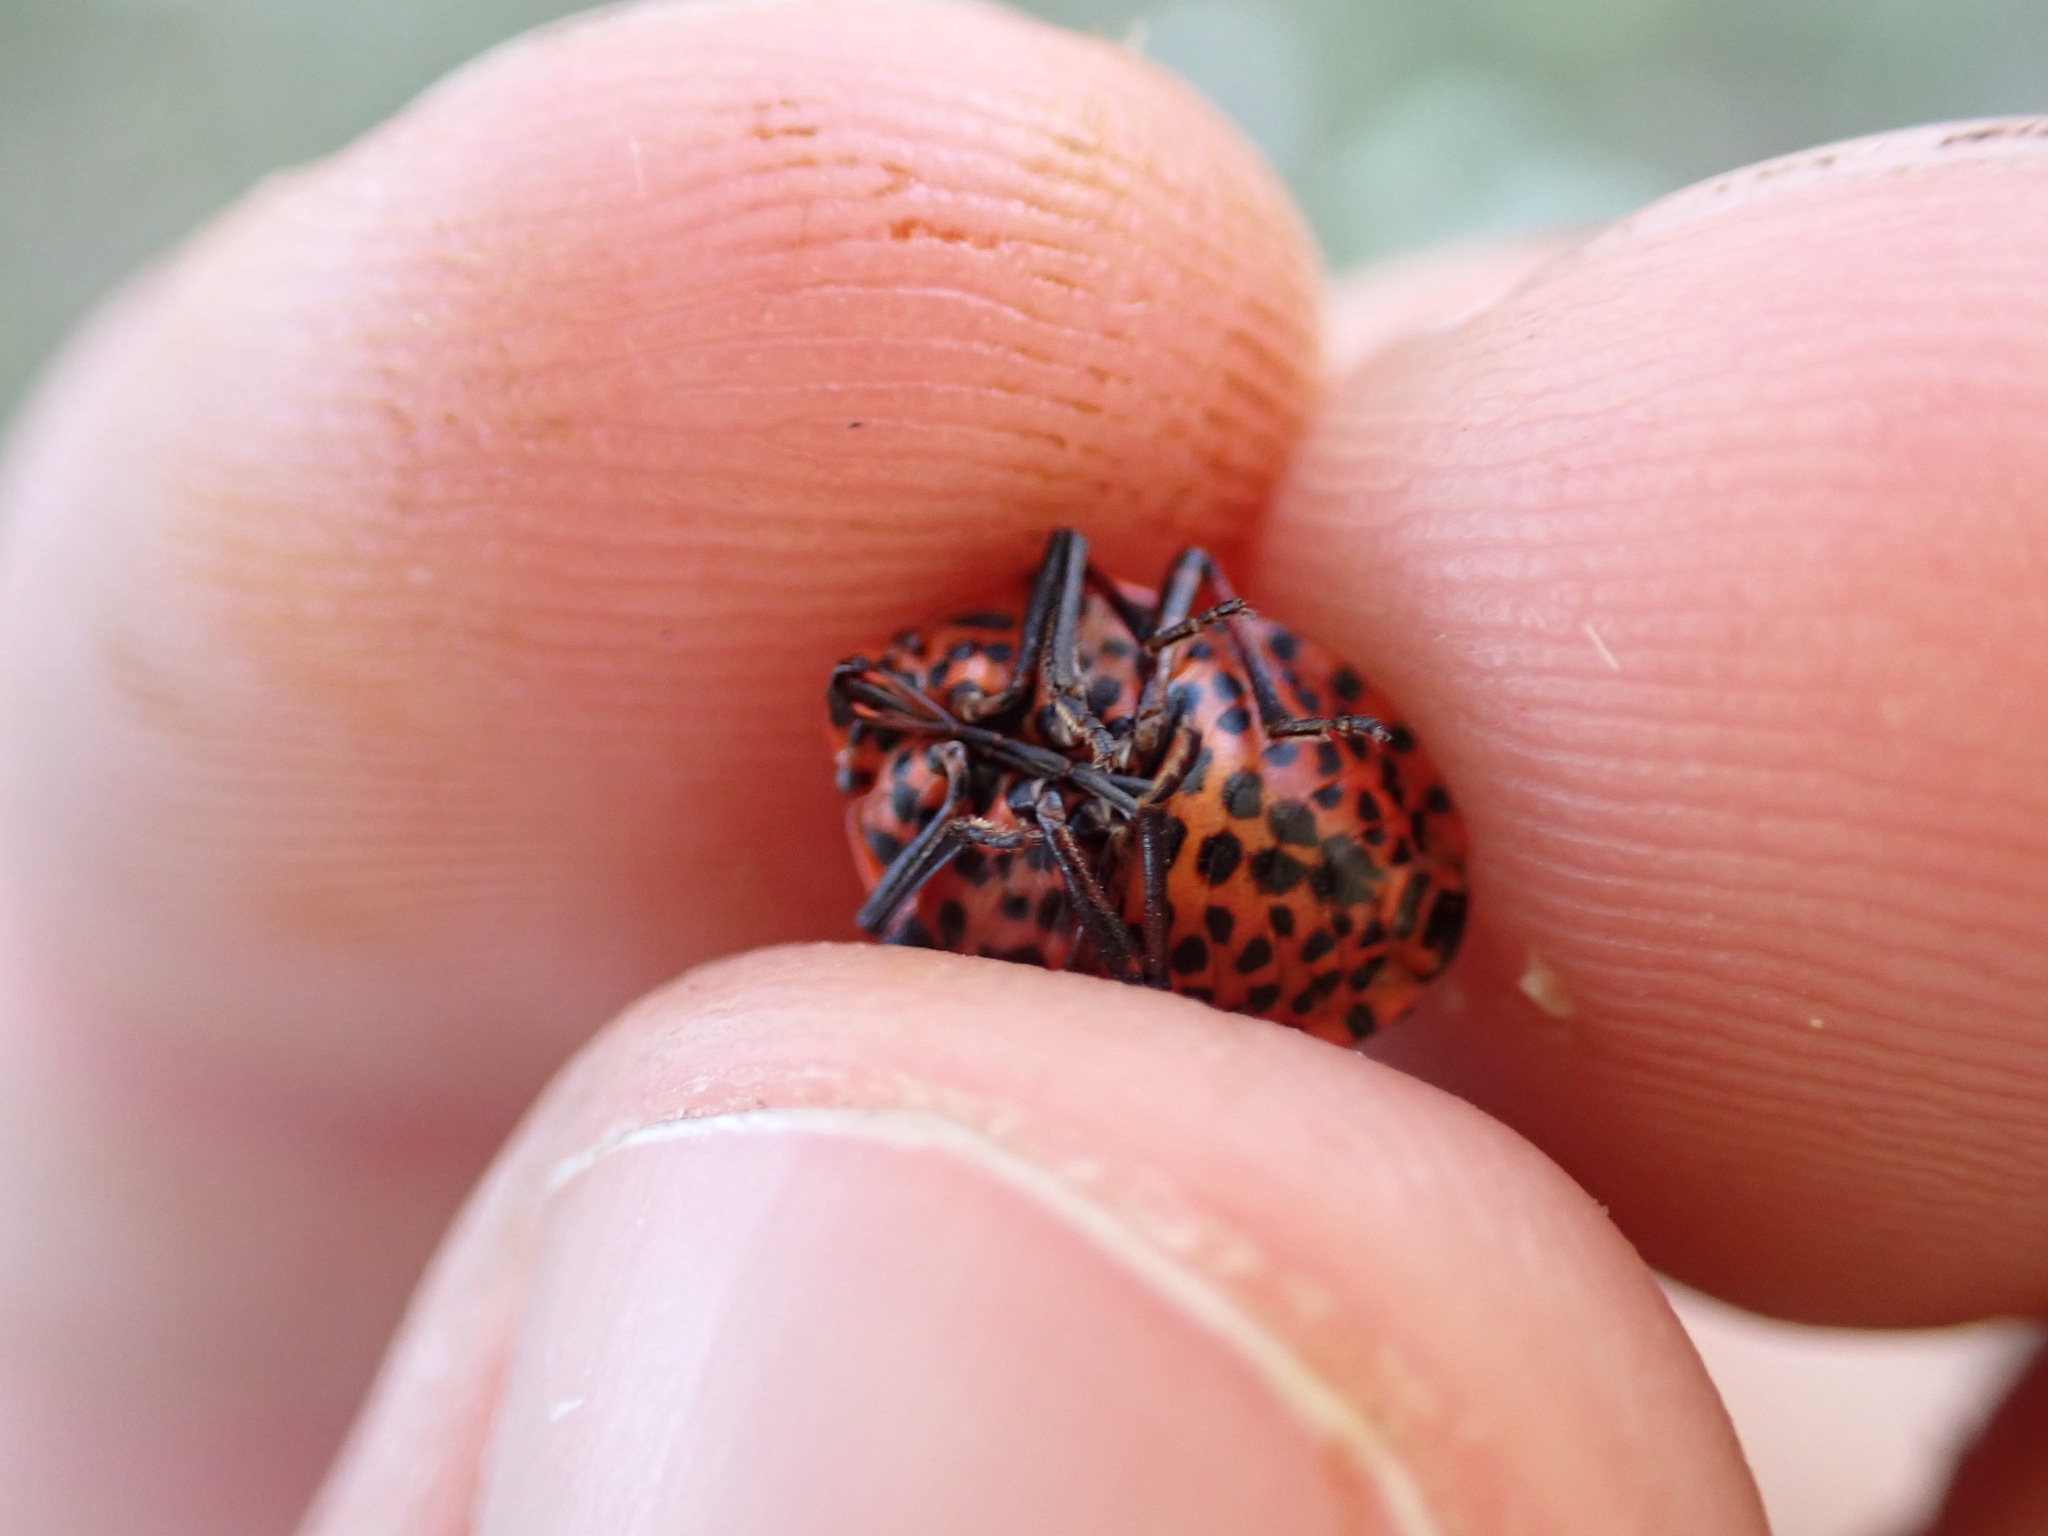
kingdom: Animalia
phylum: Arthropoda
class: Insecta
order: Hemiptera
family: Pentatomidae
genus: Graphosoma
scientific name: Graphosoma italicum
